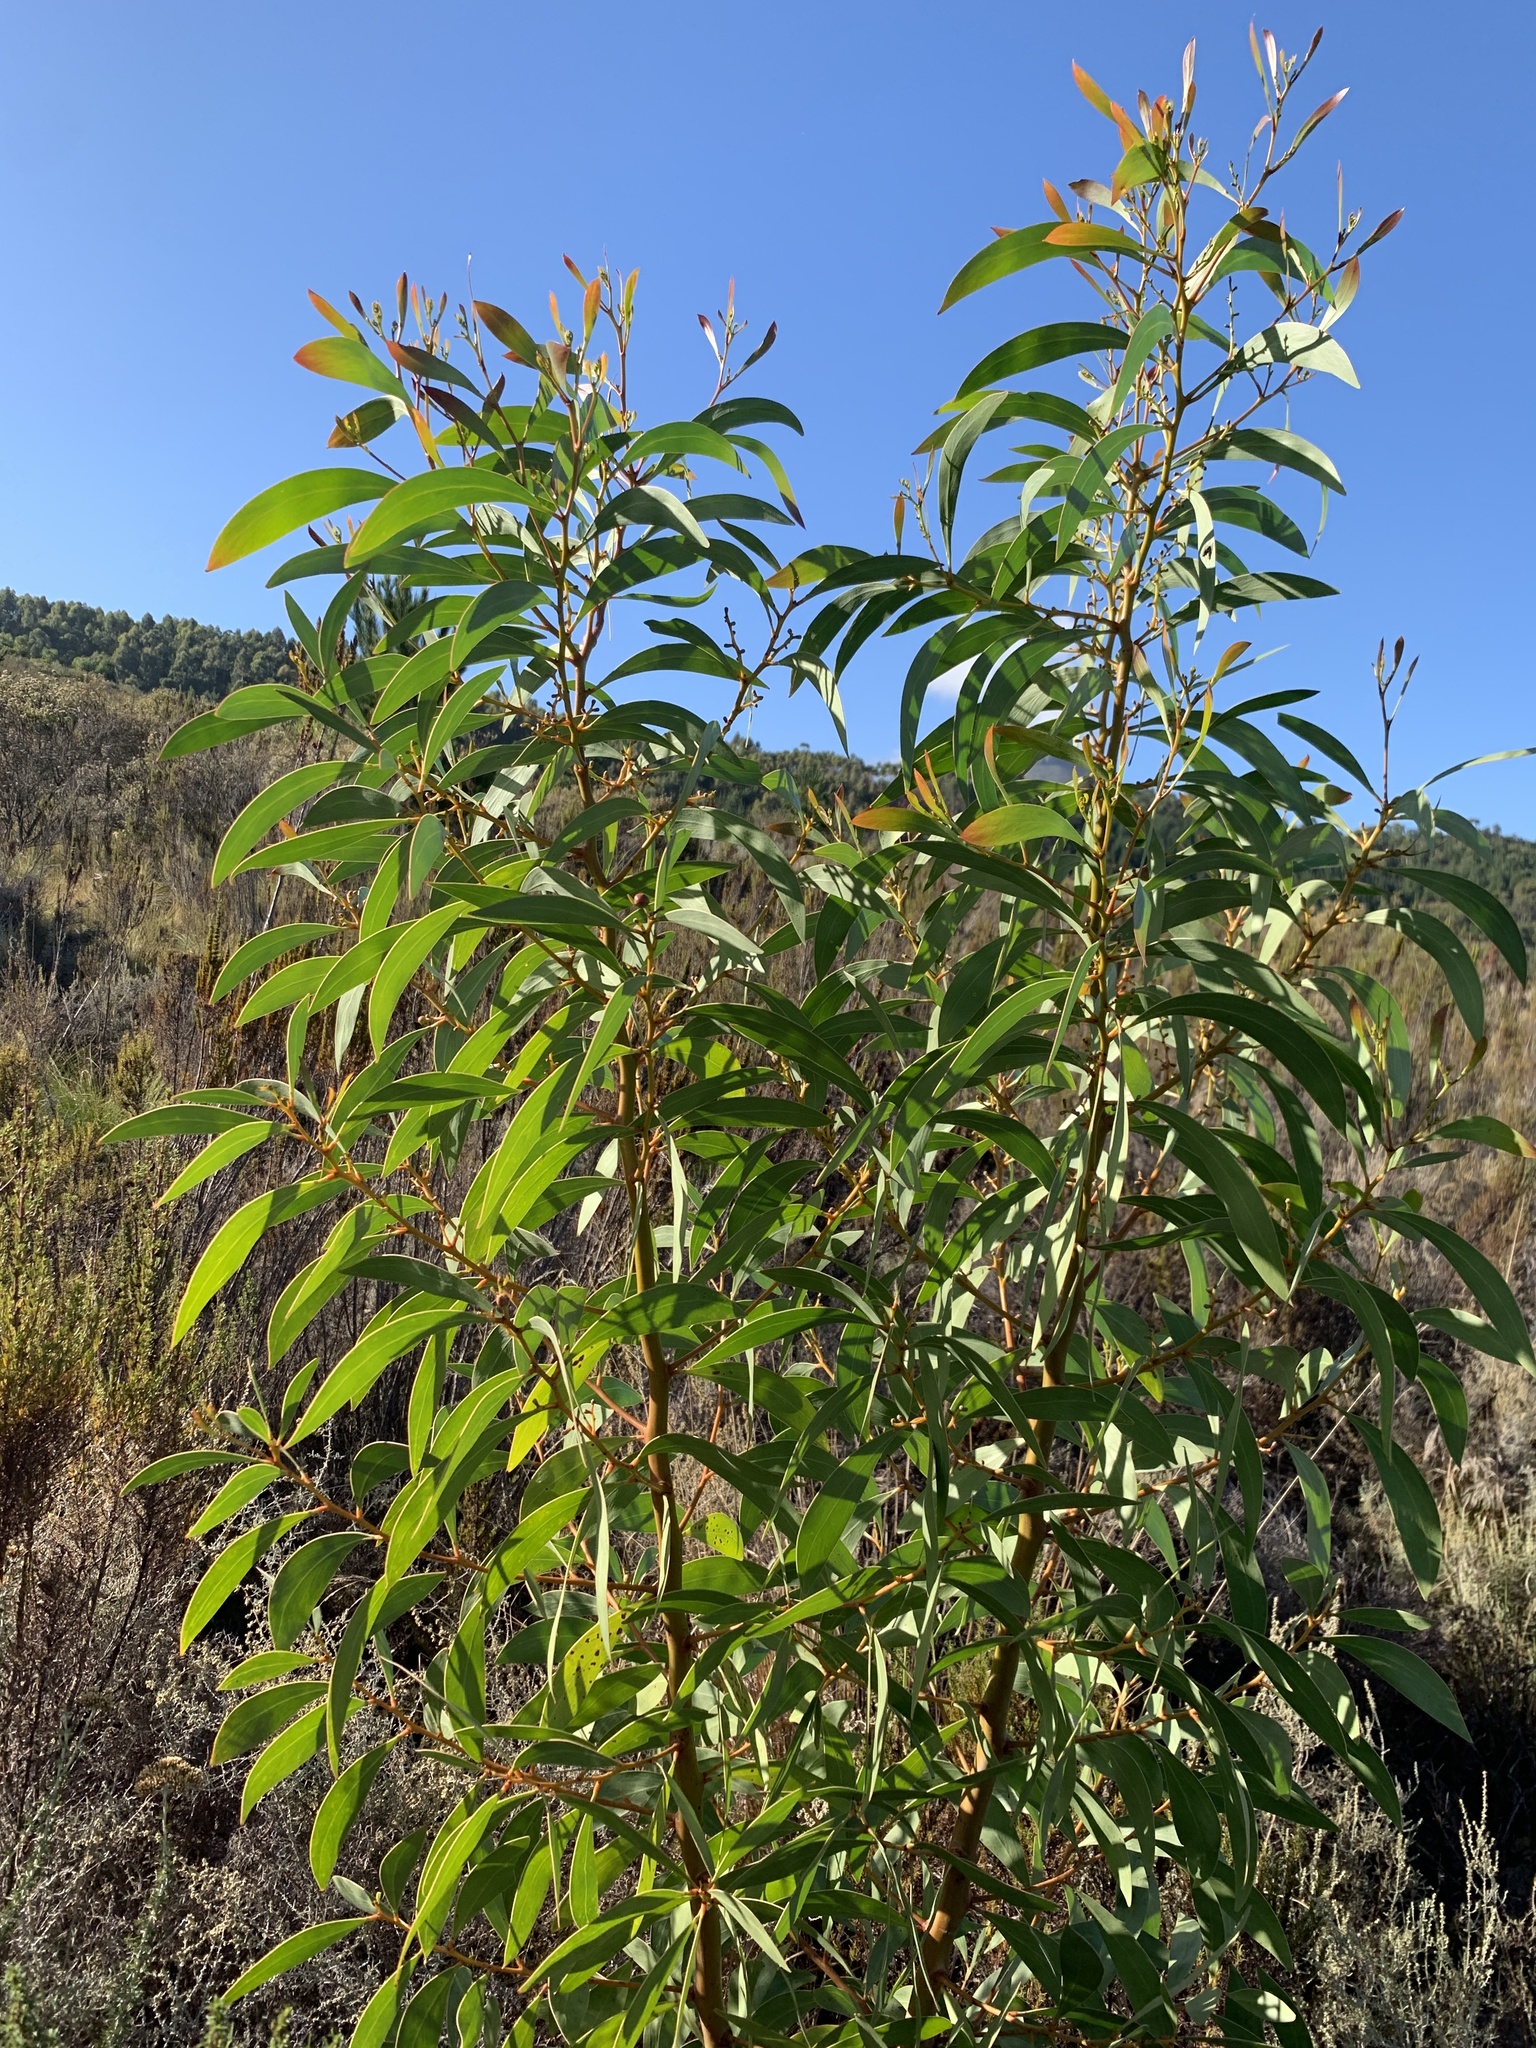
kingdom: Plantae
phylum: Tracheophyta
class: Magnoliopsida
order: Fabales
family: Fabaceae
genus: Acacia
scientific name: Acacia pycnantha
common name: Golden wattle
